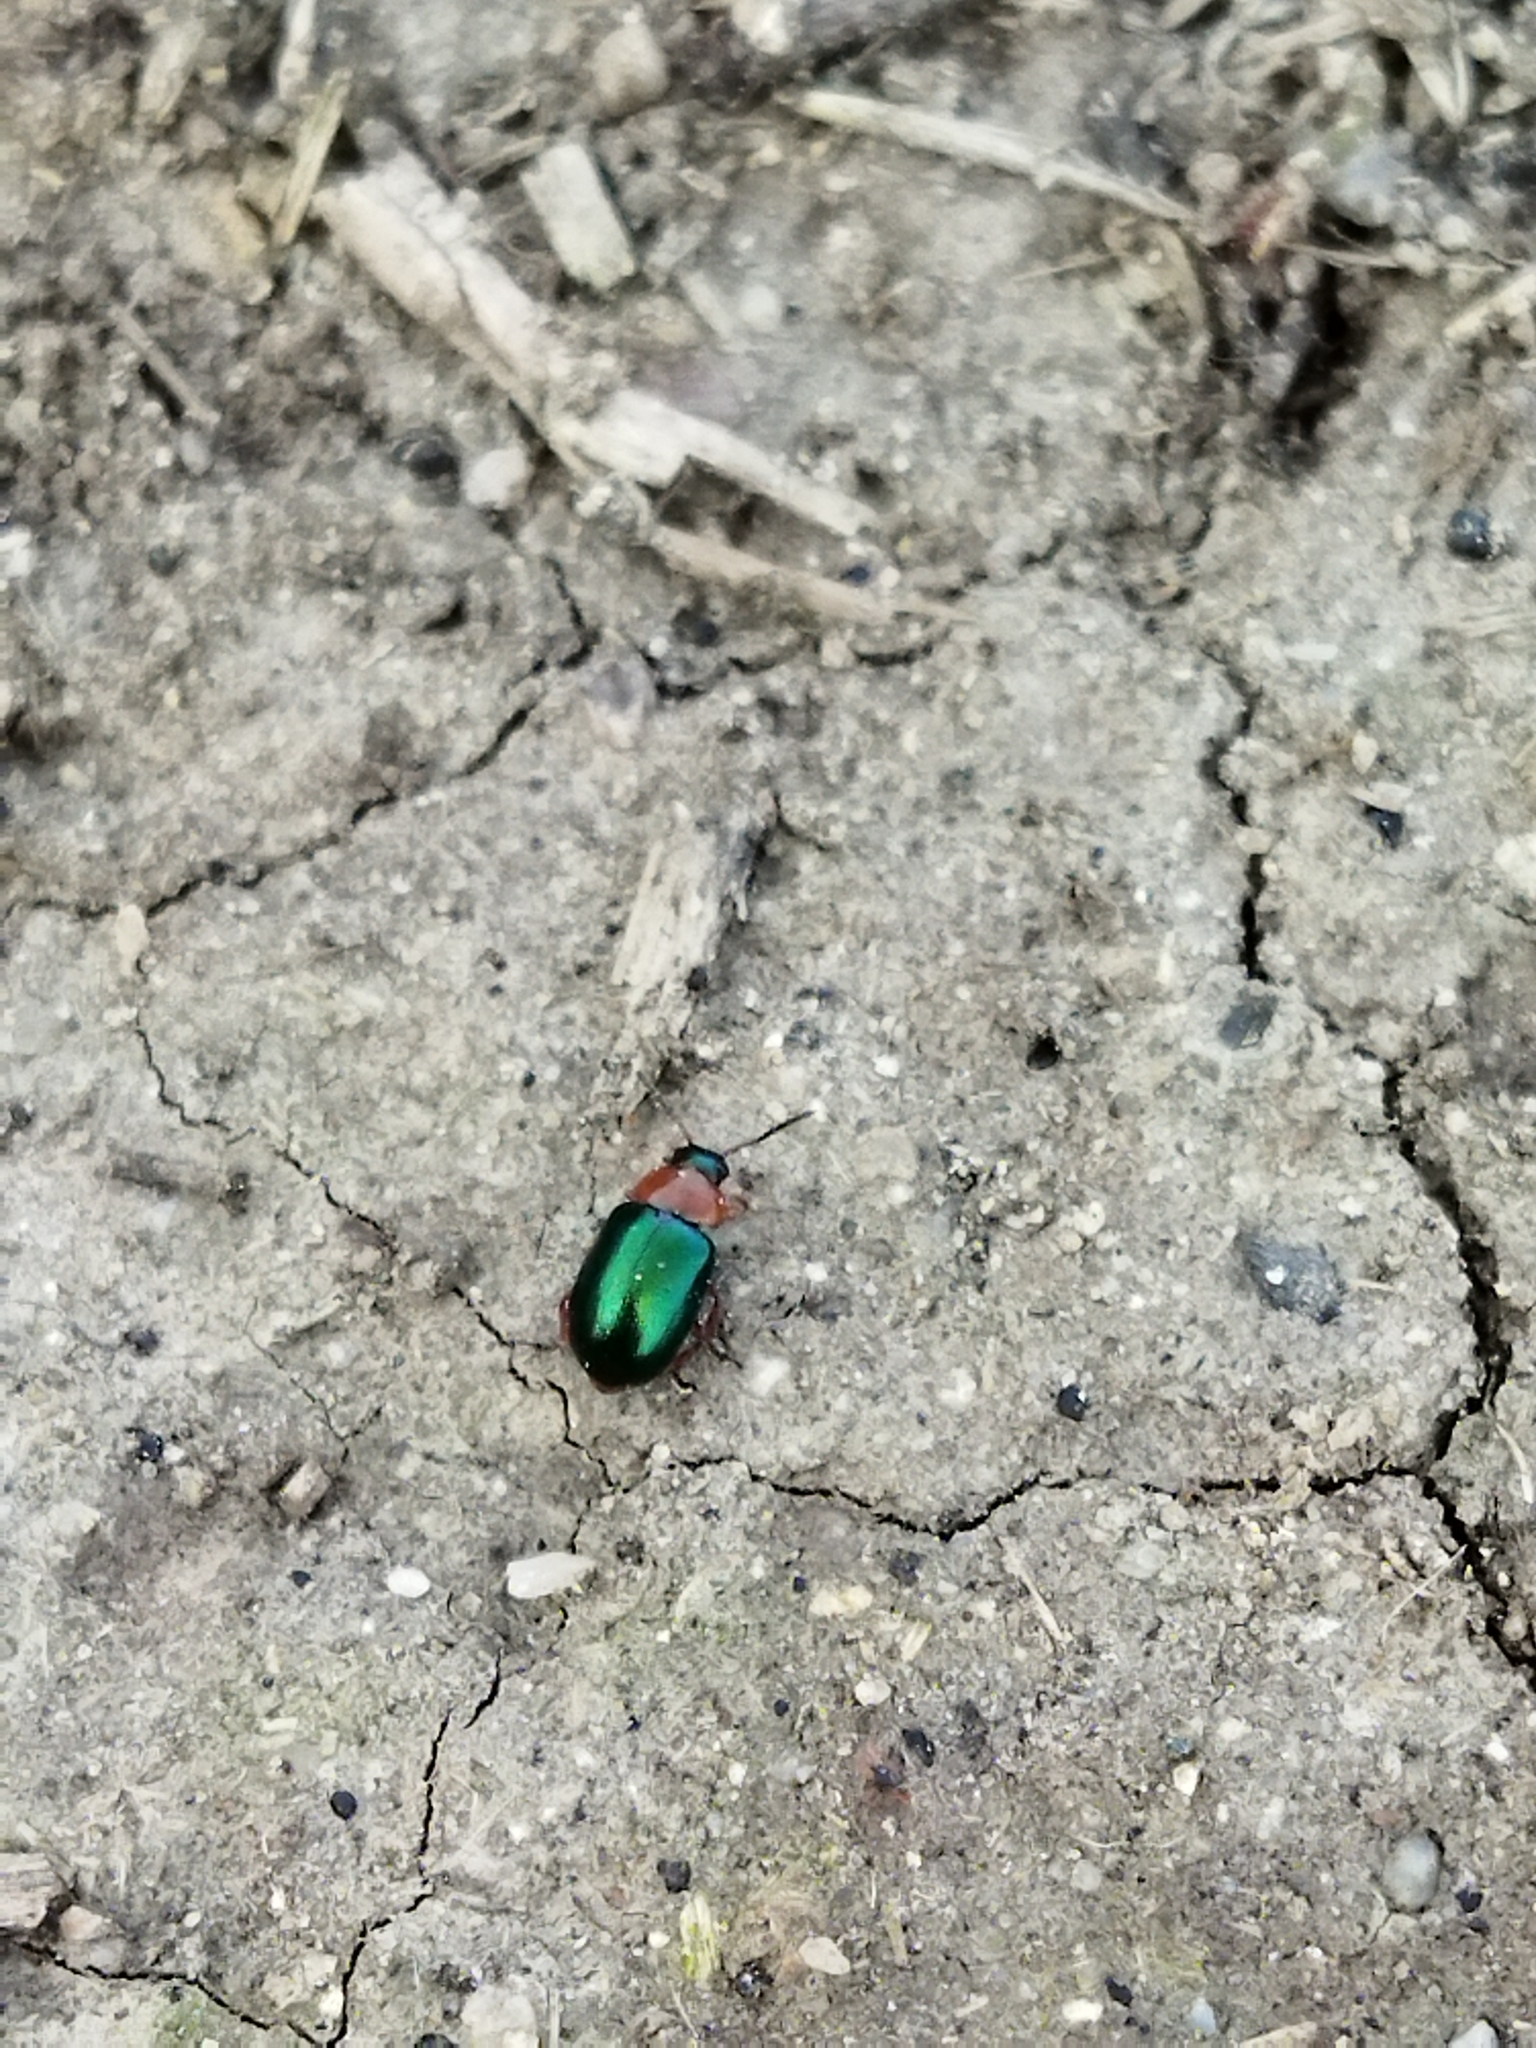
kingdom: Animalia
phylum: Arthropoda
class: Insecta
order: Coleoptera
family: Chrysomelidae
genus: Gastrophysa
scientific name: Gastrophysa polygoni
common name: Knotweed leaf beetle
